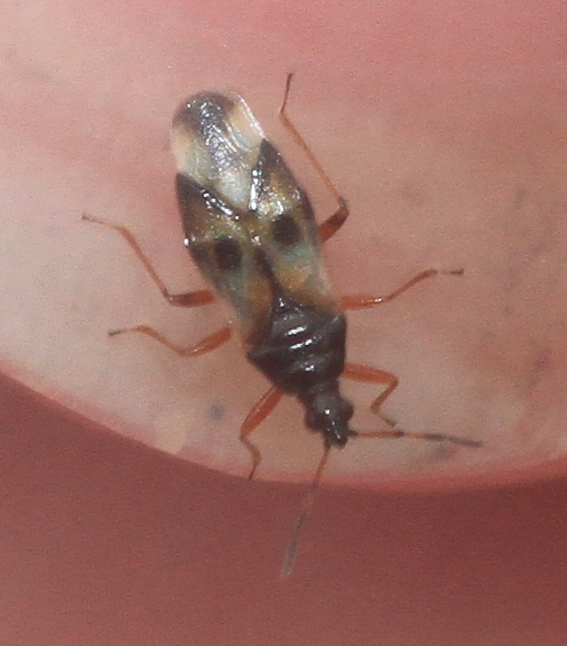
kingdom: Animalia
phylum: Arthropoda
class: Insecta
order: Hemiptera
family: Anthocoridae
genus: Anthocoris
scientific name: Anthocoris nemorum
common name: Minute pirate bug
